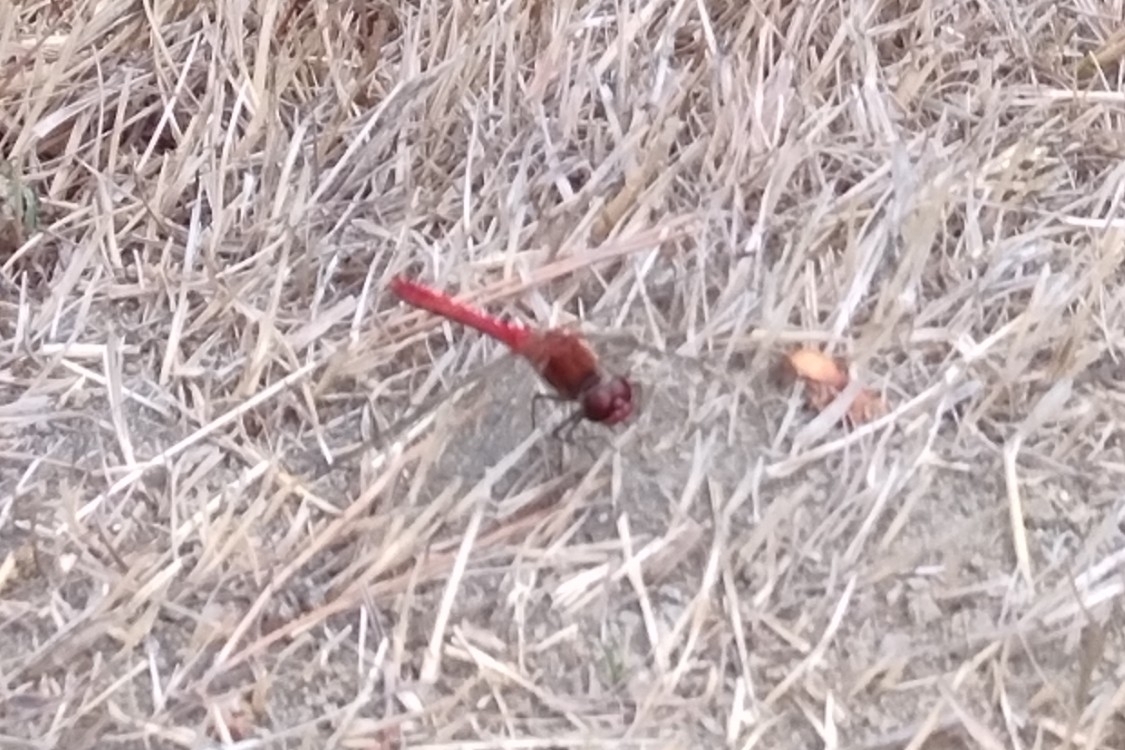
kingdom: Animalia
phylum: Arthropoda
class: Insecta
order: Odonata
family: Libellulidae
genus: Sympetrum
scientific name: Sympetrum sanguineum
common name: Ruddy darter
